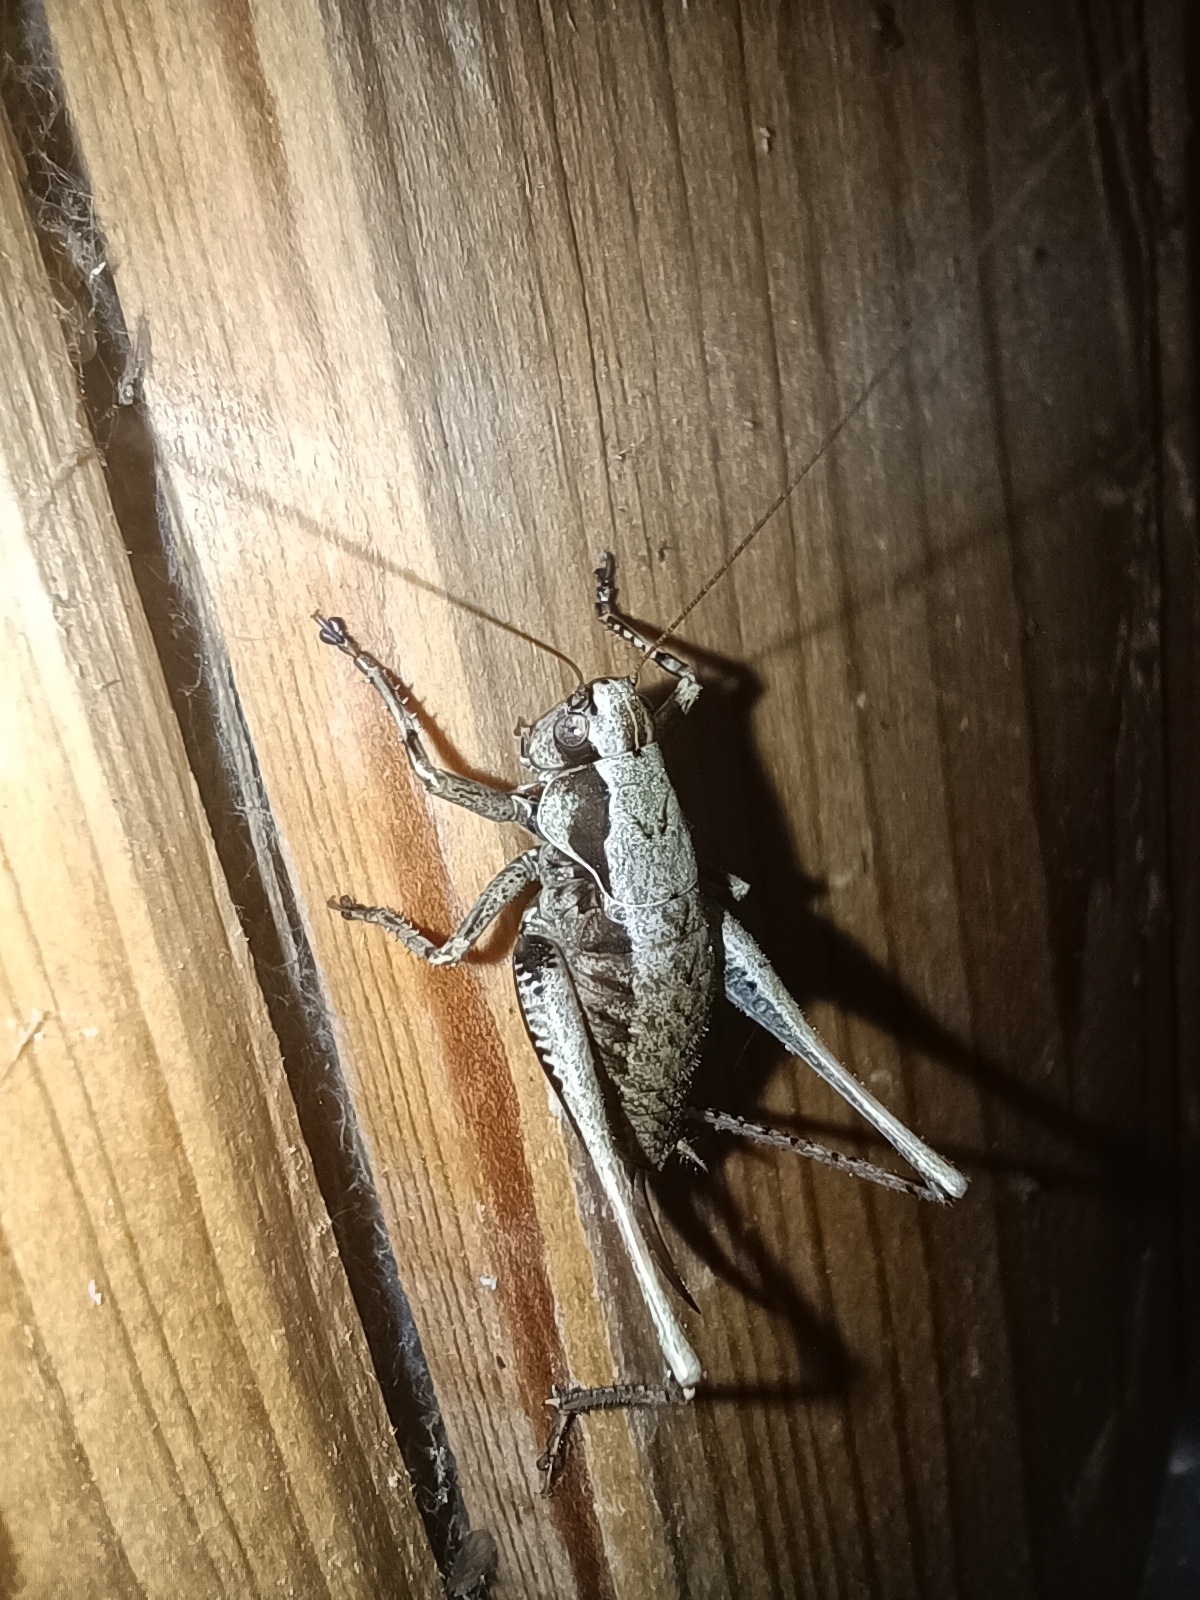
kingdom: Animalia
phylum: Arthropoda
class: Insecta
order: Orthoptera
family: Tettigoniidae
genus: Pholidoptera
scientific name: Pholidoptera griseoaptera
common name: Dark bush-cricket
